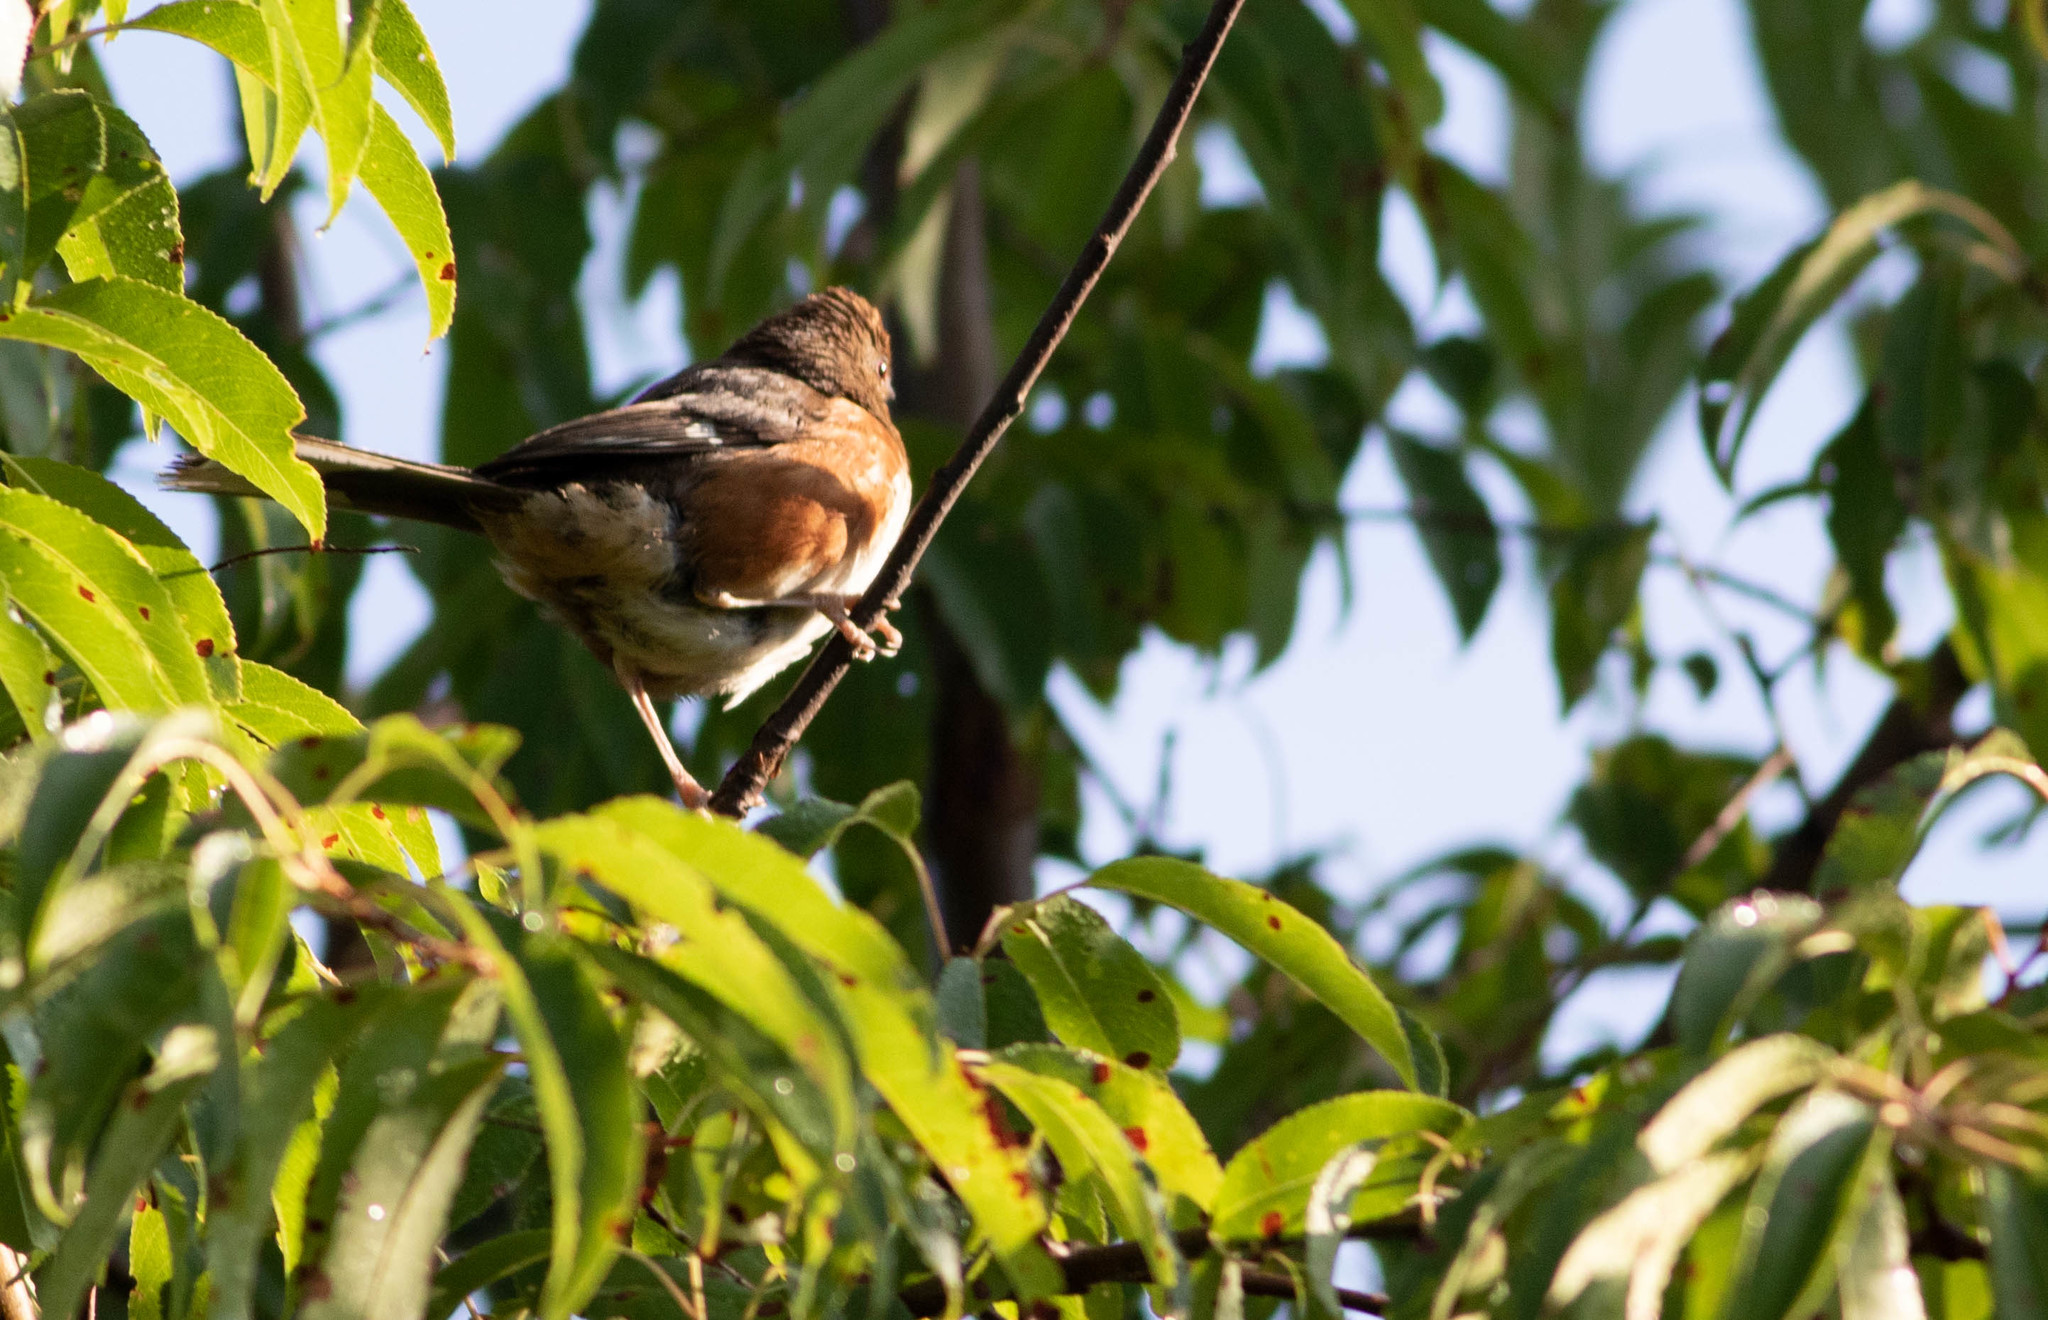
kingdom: Animalia
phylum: Chordata
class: Aves
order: Passeriformes
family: Passerellidae
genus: Pipilo
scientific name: Pipilo erythrophthalmus
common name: Eastern towhee
